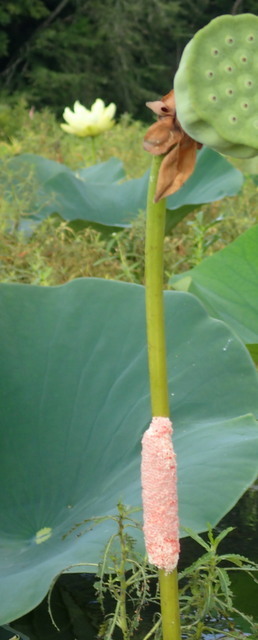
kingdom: Animalia
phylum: Mollusca
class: Gastropoda
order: Architaenioglossa
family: Ampullariidae
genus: Pomacea
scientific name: Pomacea maculata
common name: Giant applesnail
